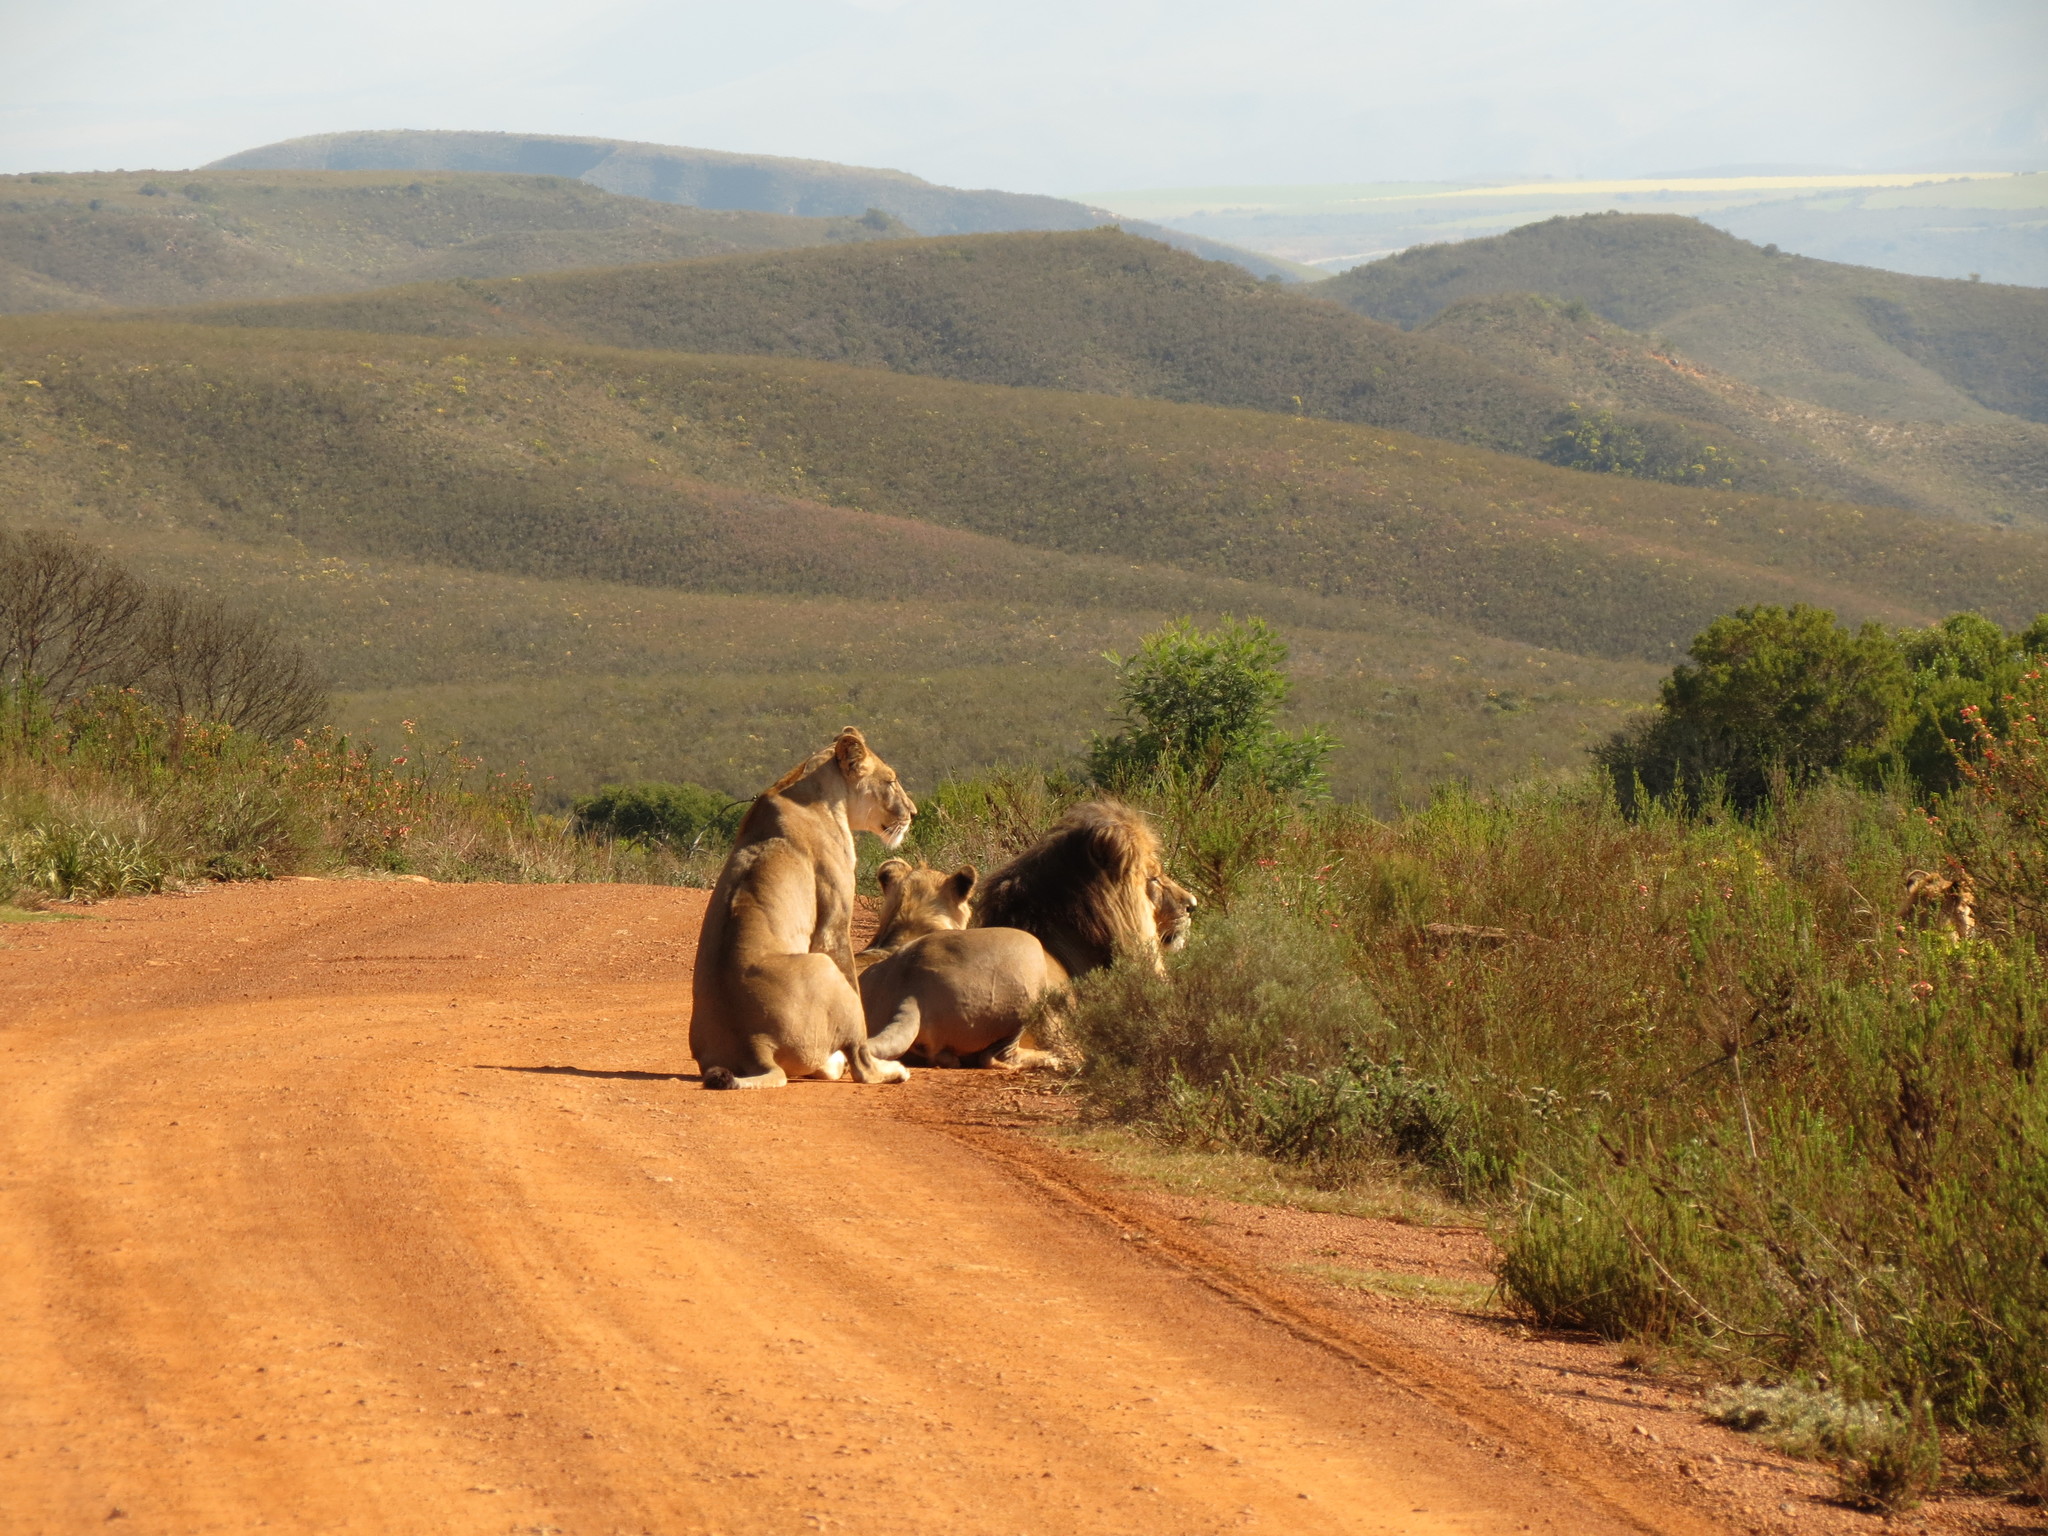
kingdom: Animalia
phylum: Chordata
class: Mammalia
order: Carnivora
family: Felidae
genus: Panthera
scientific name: Panthera leo
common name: Lion
